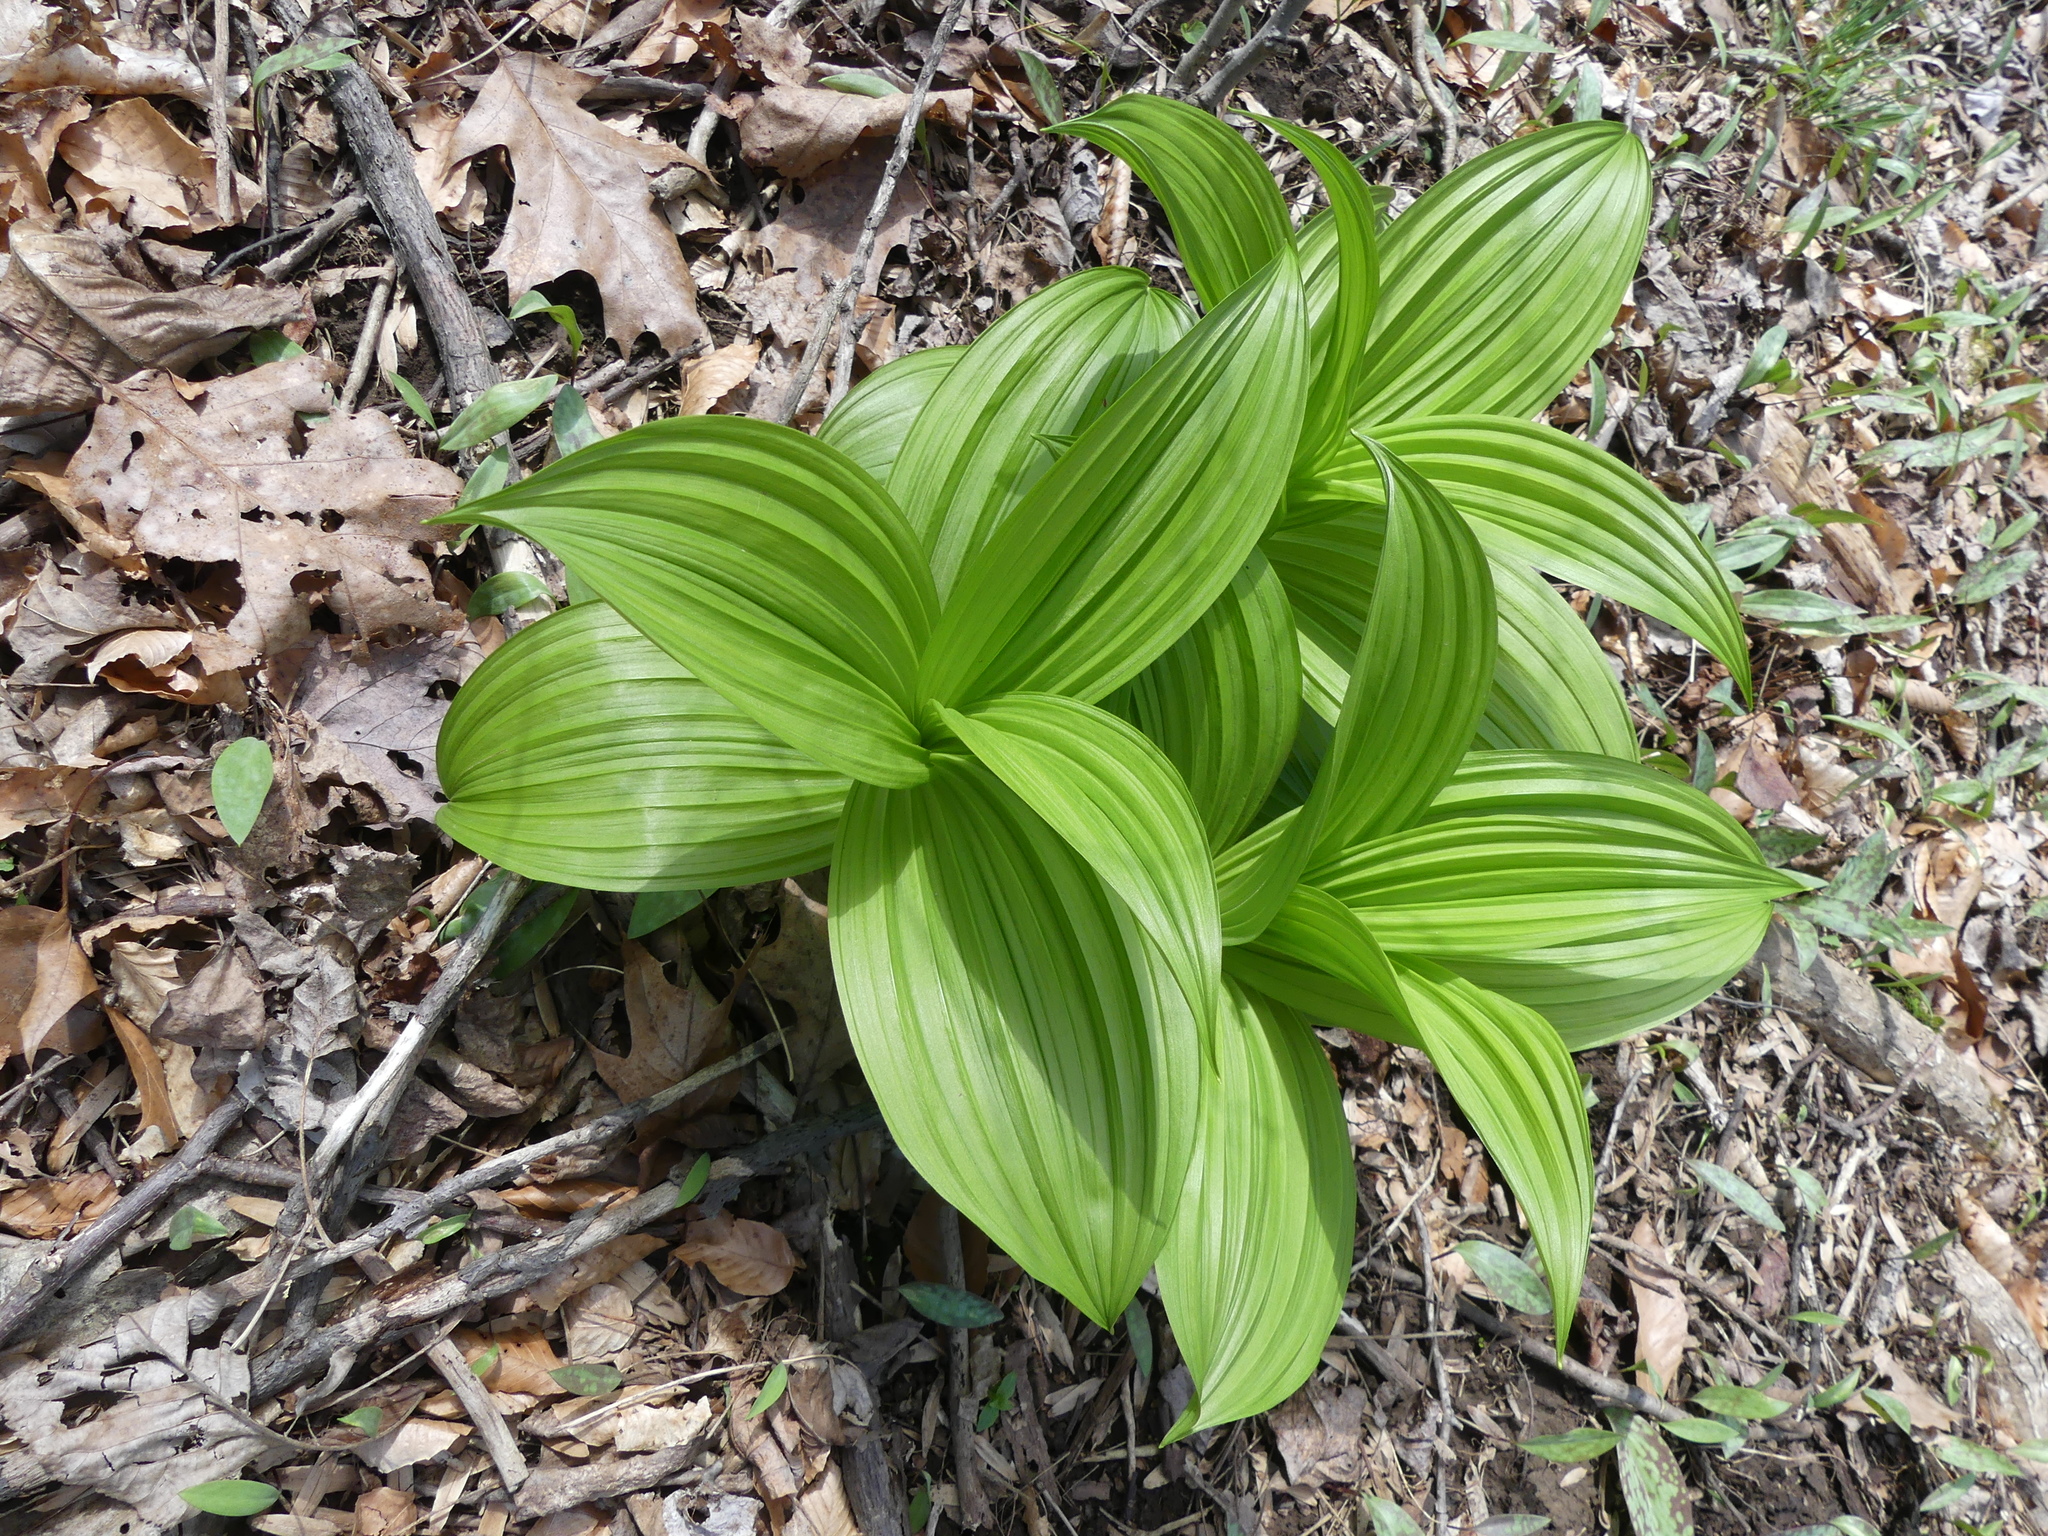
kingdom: Plantae
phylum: Tracheophyta
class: Liliopsida
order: Liliales
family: Melanthiaceae
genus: Veratrum
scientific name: Veratrum viride
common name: American false hellebore
